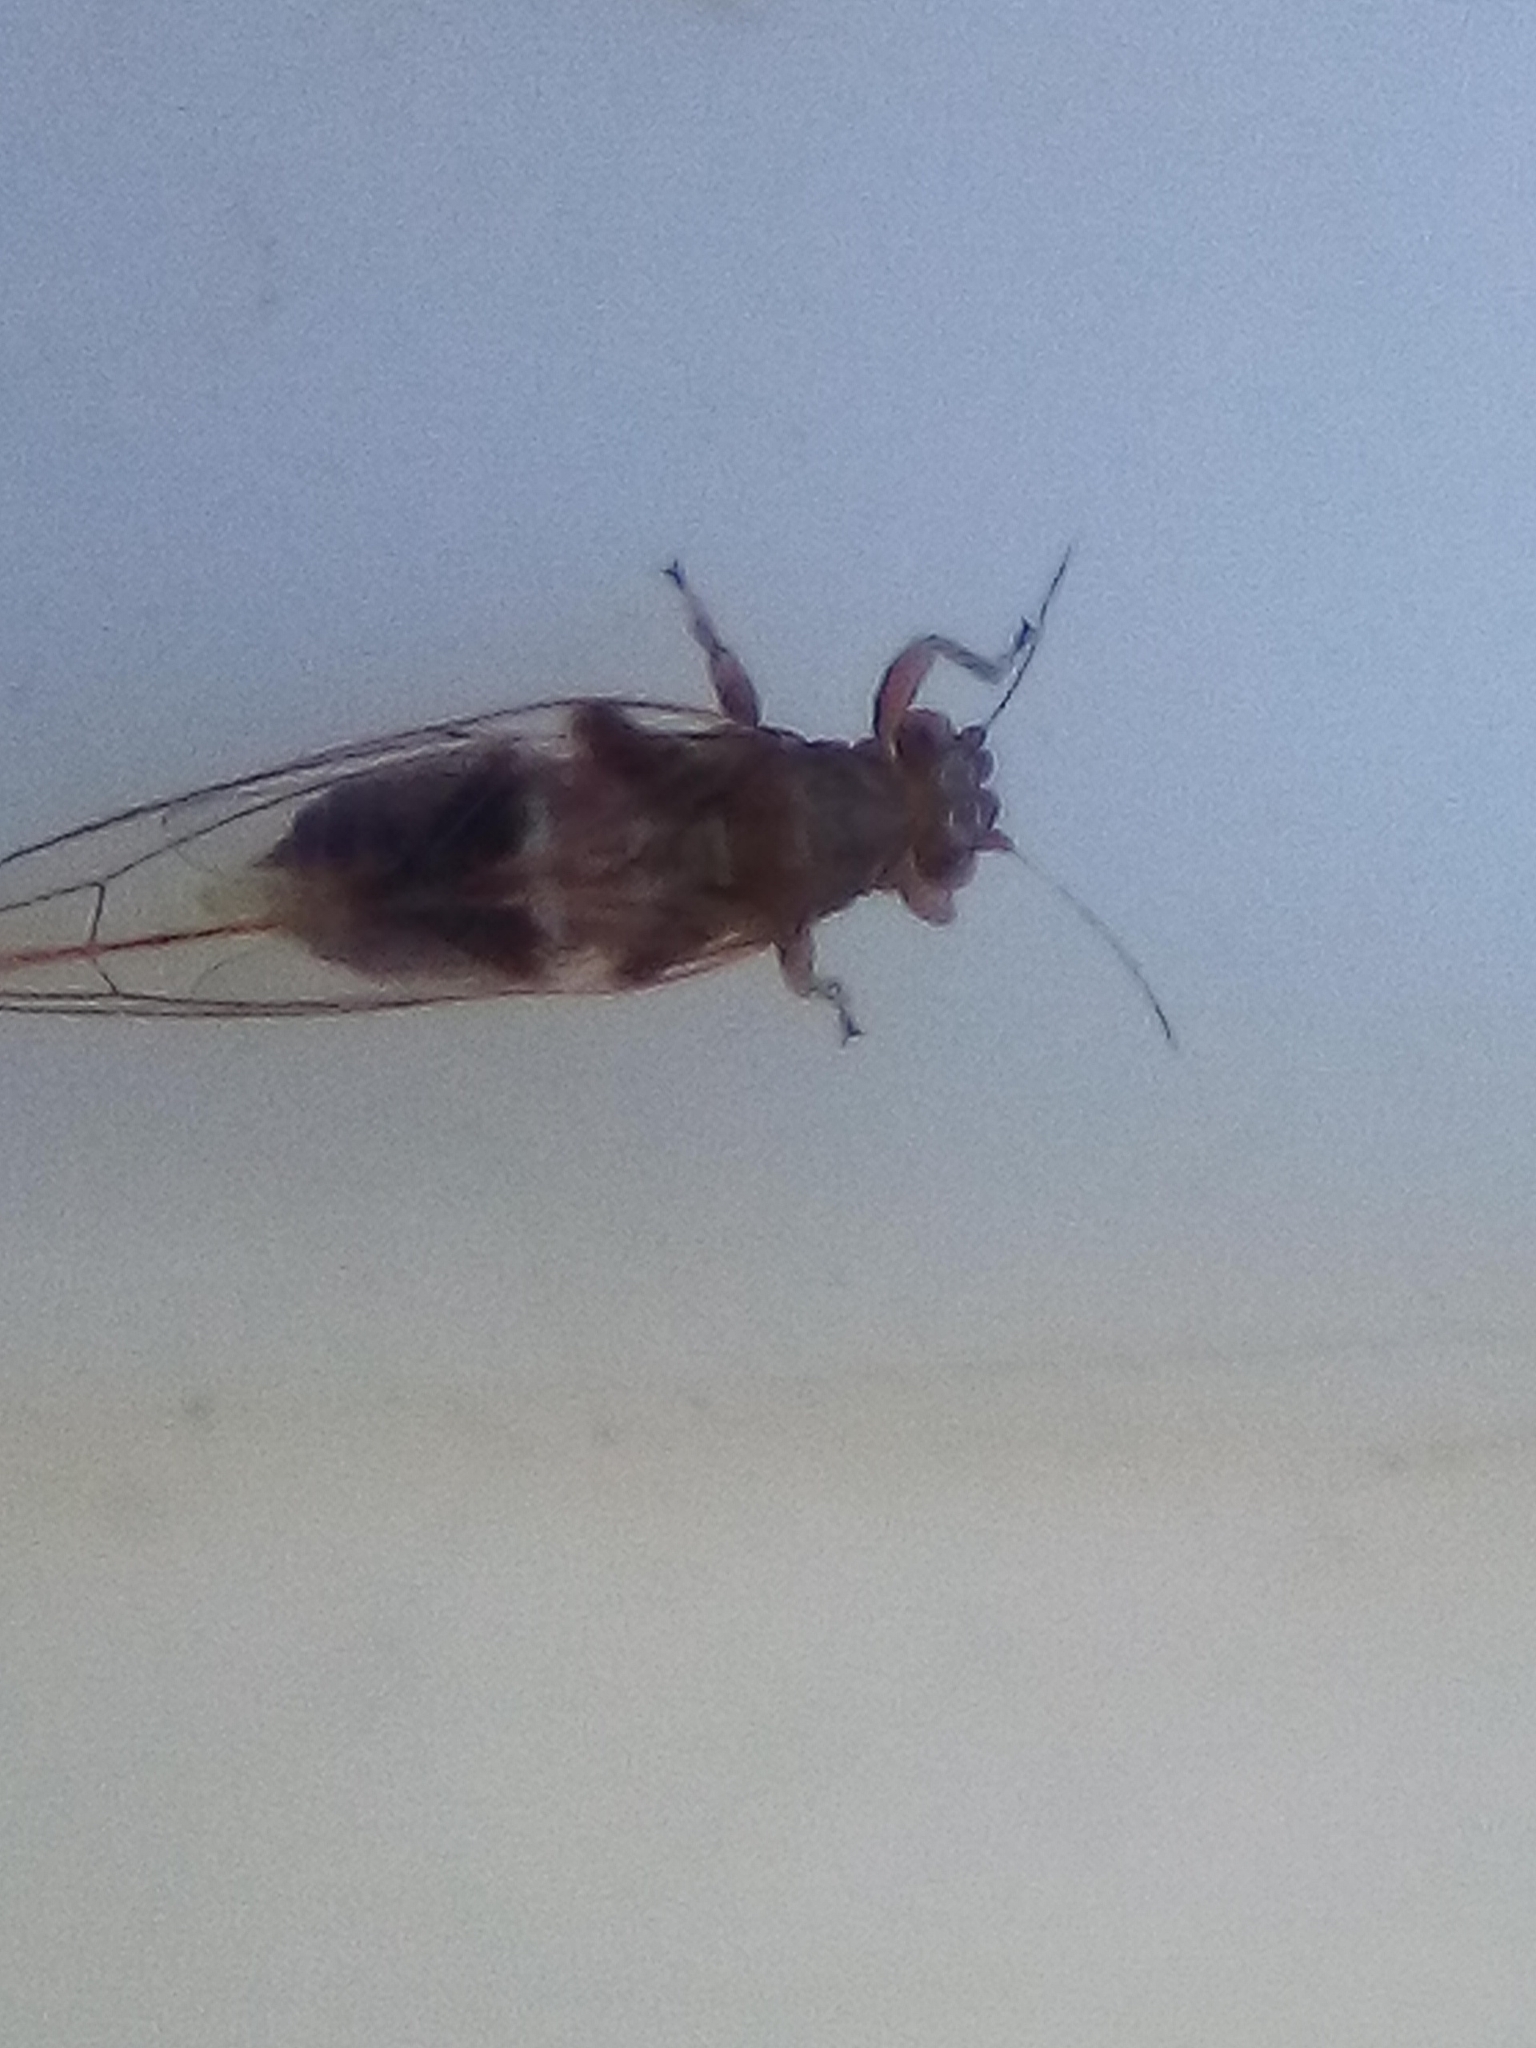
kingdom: Animalia
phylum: Arthropoda
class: Insecta
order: Hemiptera
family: Triozidae
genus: Trioza
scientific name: Trioza fasciata
